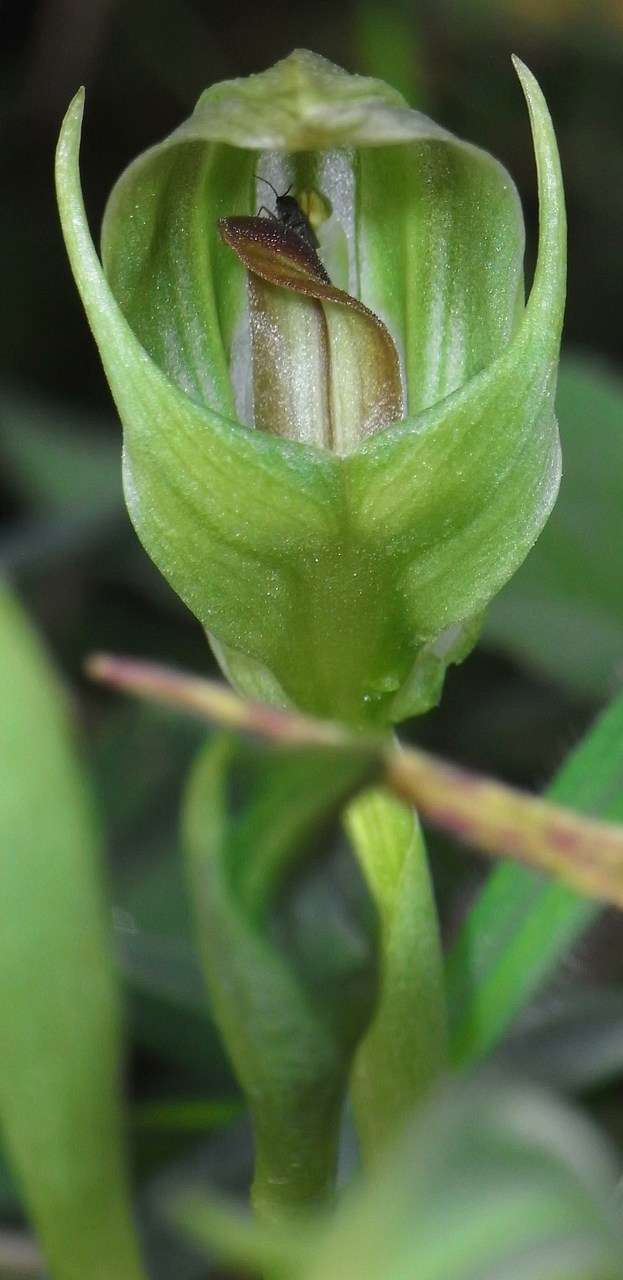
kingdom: Plantae
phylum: Tracheophyta
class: Liliopsida
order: Asparagales
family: Orchidaceae
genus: Pterostylis
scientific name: Pterostylis curta
